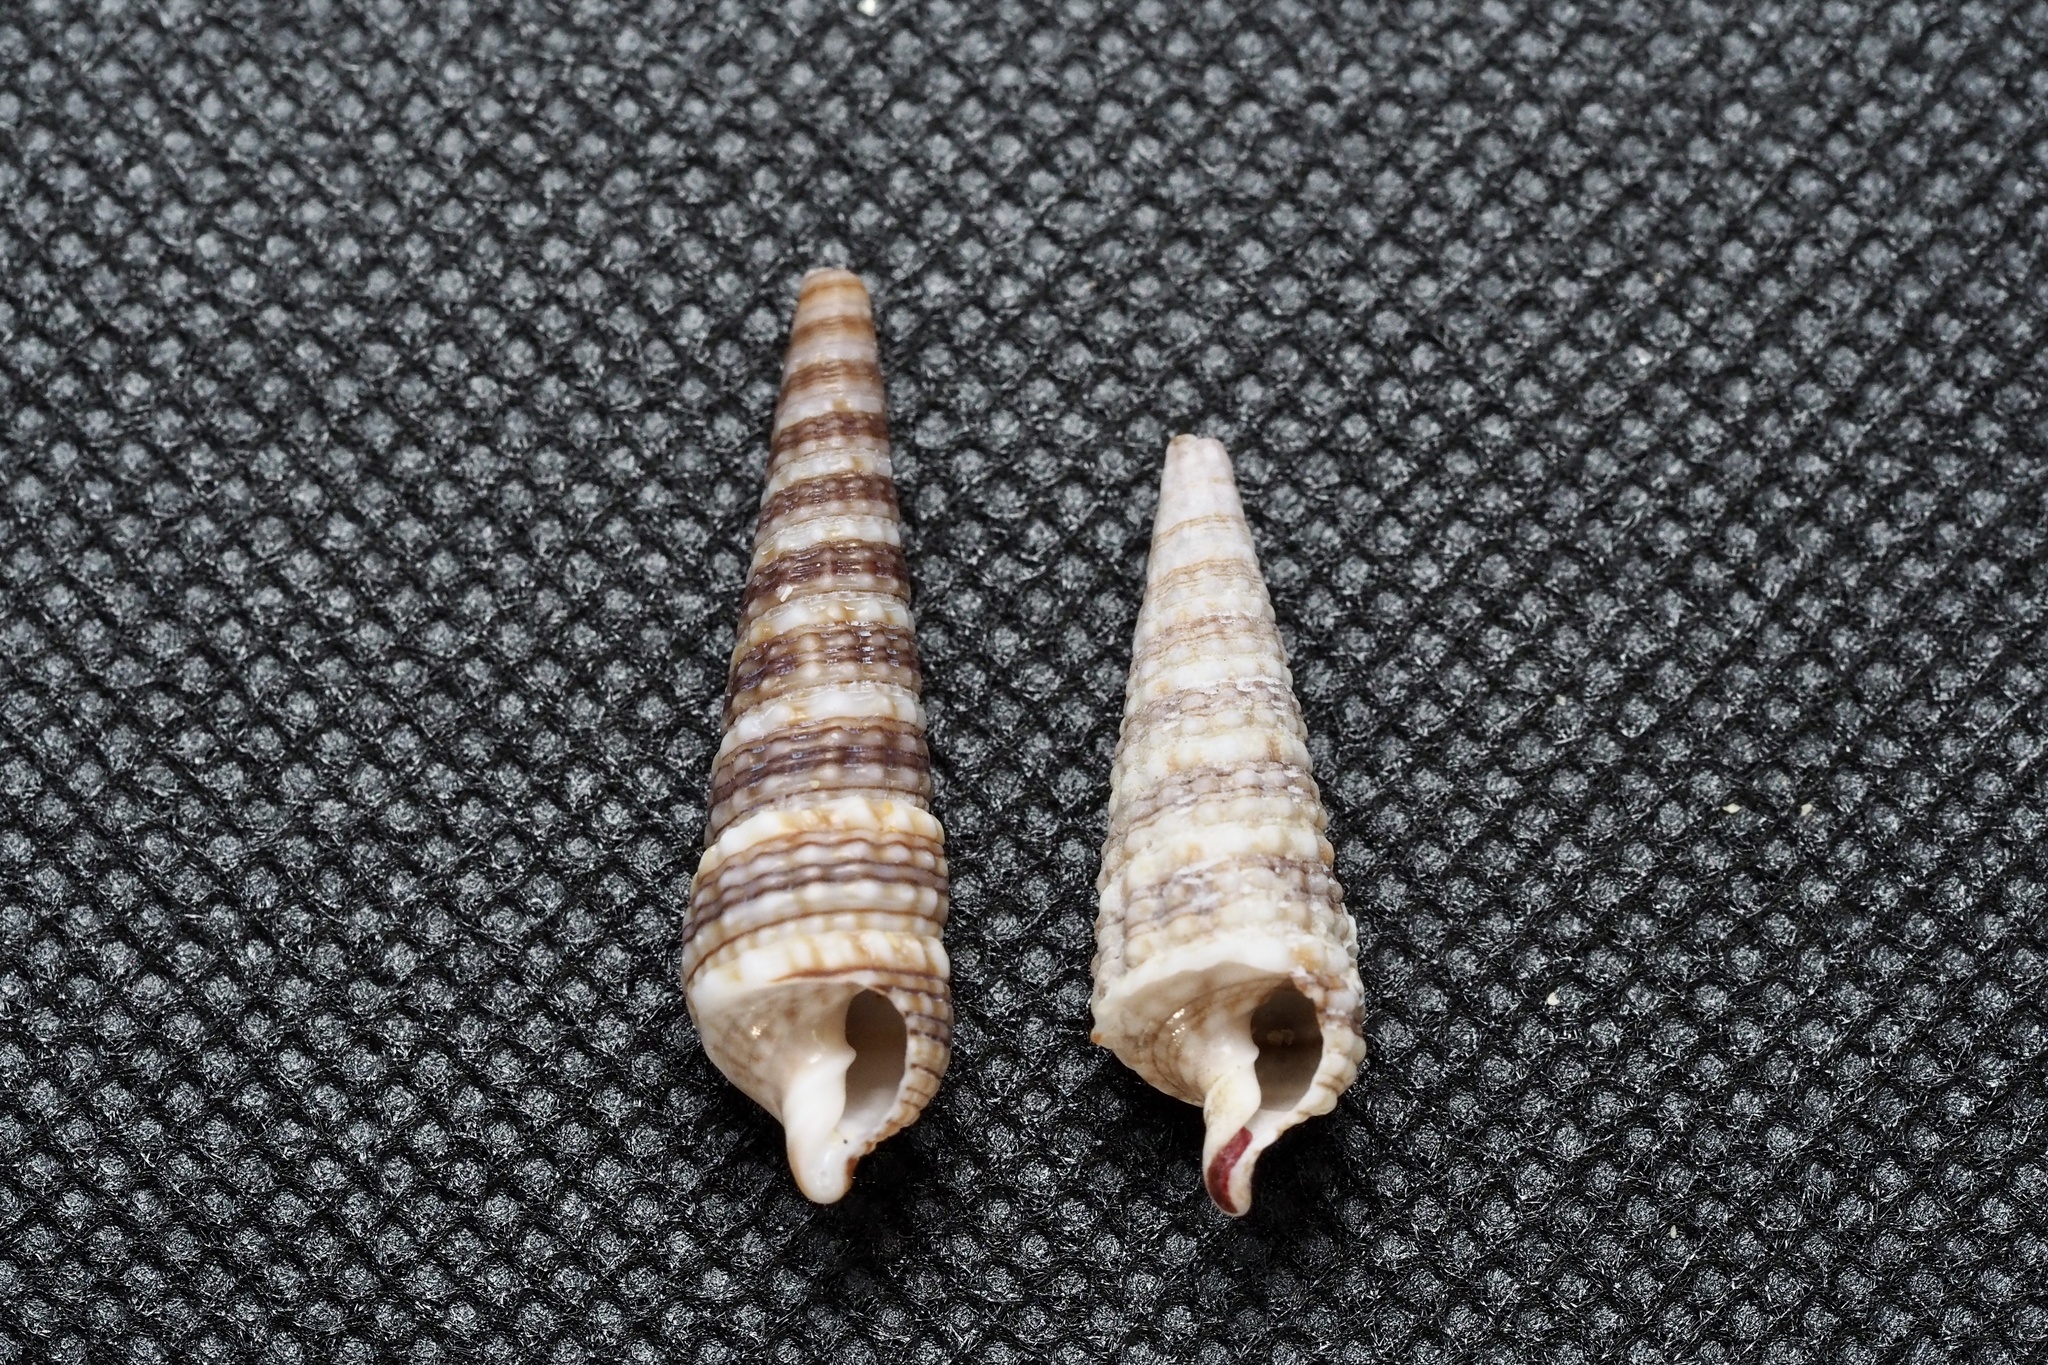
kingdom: Animalia
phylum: Mollusca
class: Gastropoda
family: Cerithiidae
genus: Rhinoclavis
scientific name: Rhinoclavis kochi
